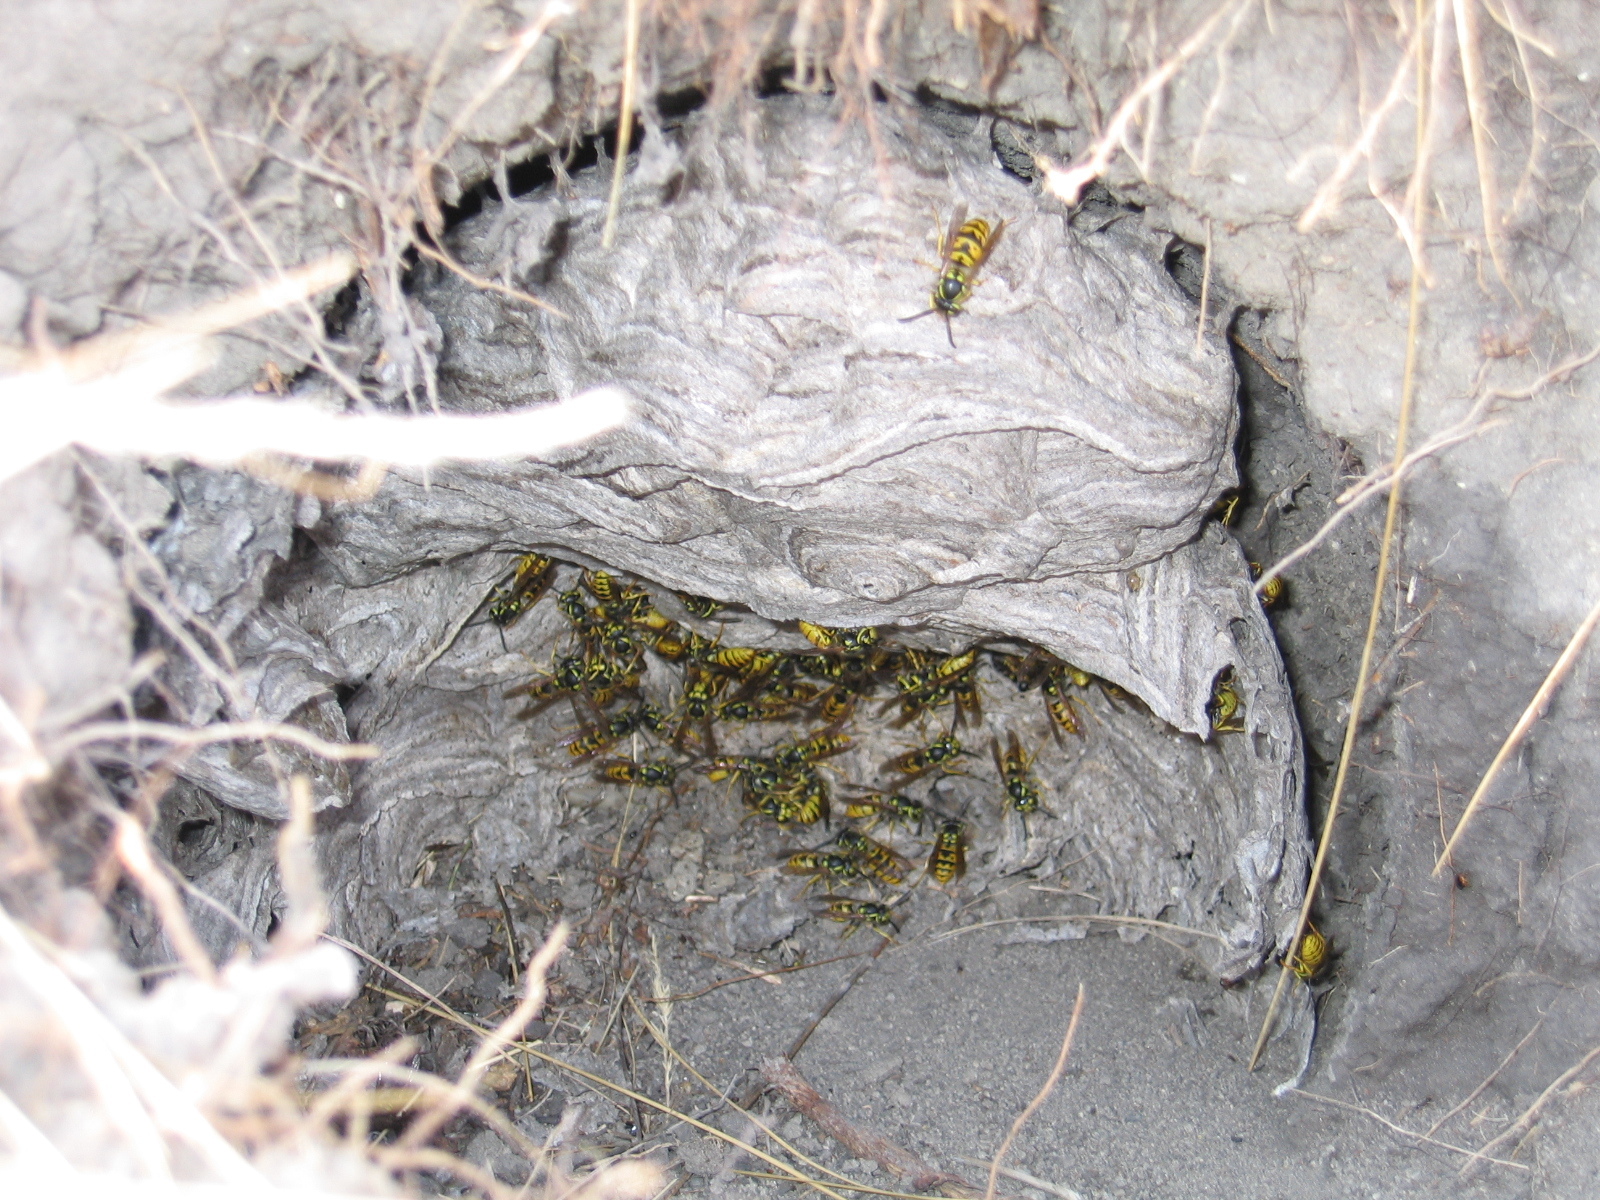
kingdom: Animalia
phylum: Arthropoda
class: Insecta
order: Hymenoptera
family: Vespidae
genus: Vespula
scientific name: Vespula germanica
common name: German wasp
